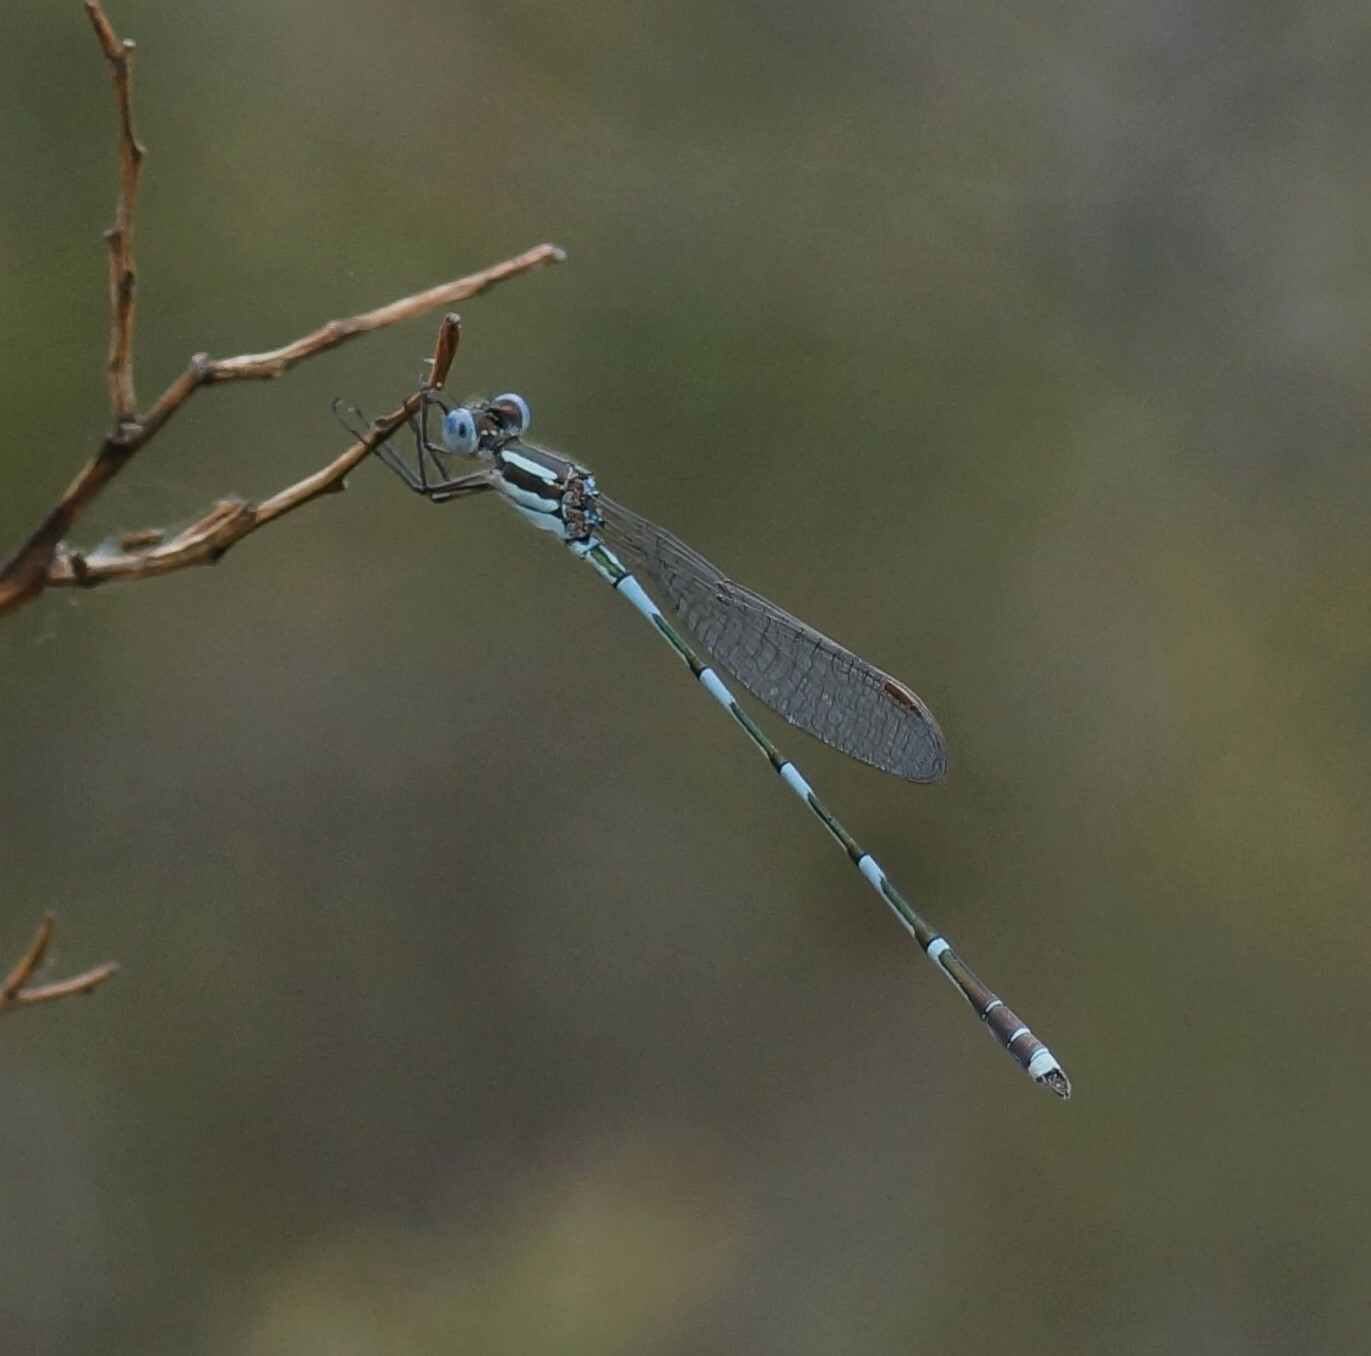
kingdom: Animalia
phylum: Arthropoda
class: Insecta
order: Odonata
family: Lestidae
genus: Austrolestes
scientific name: Austrolestes leda
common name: Wandering ringtail
